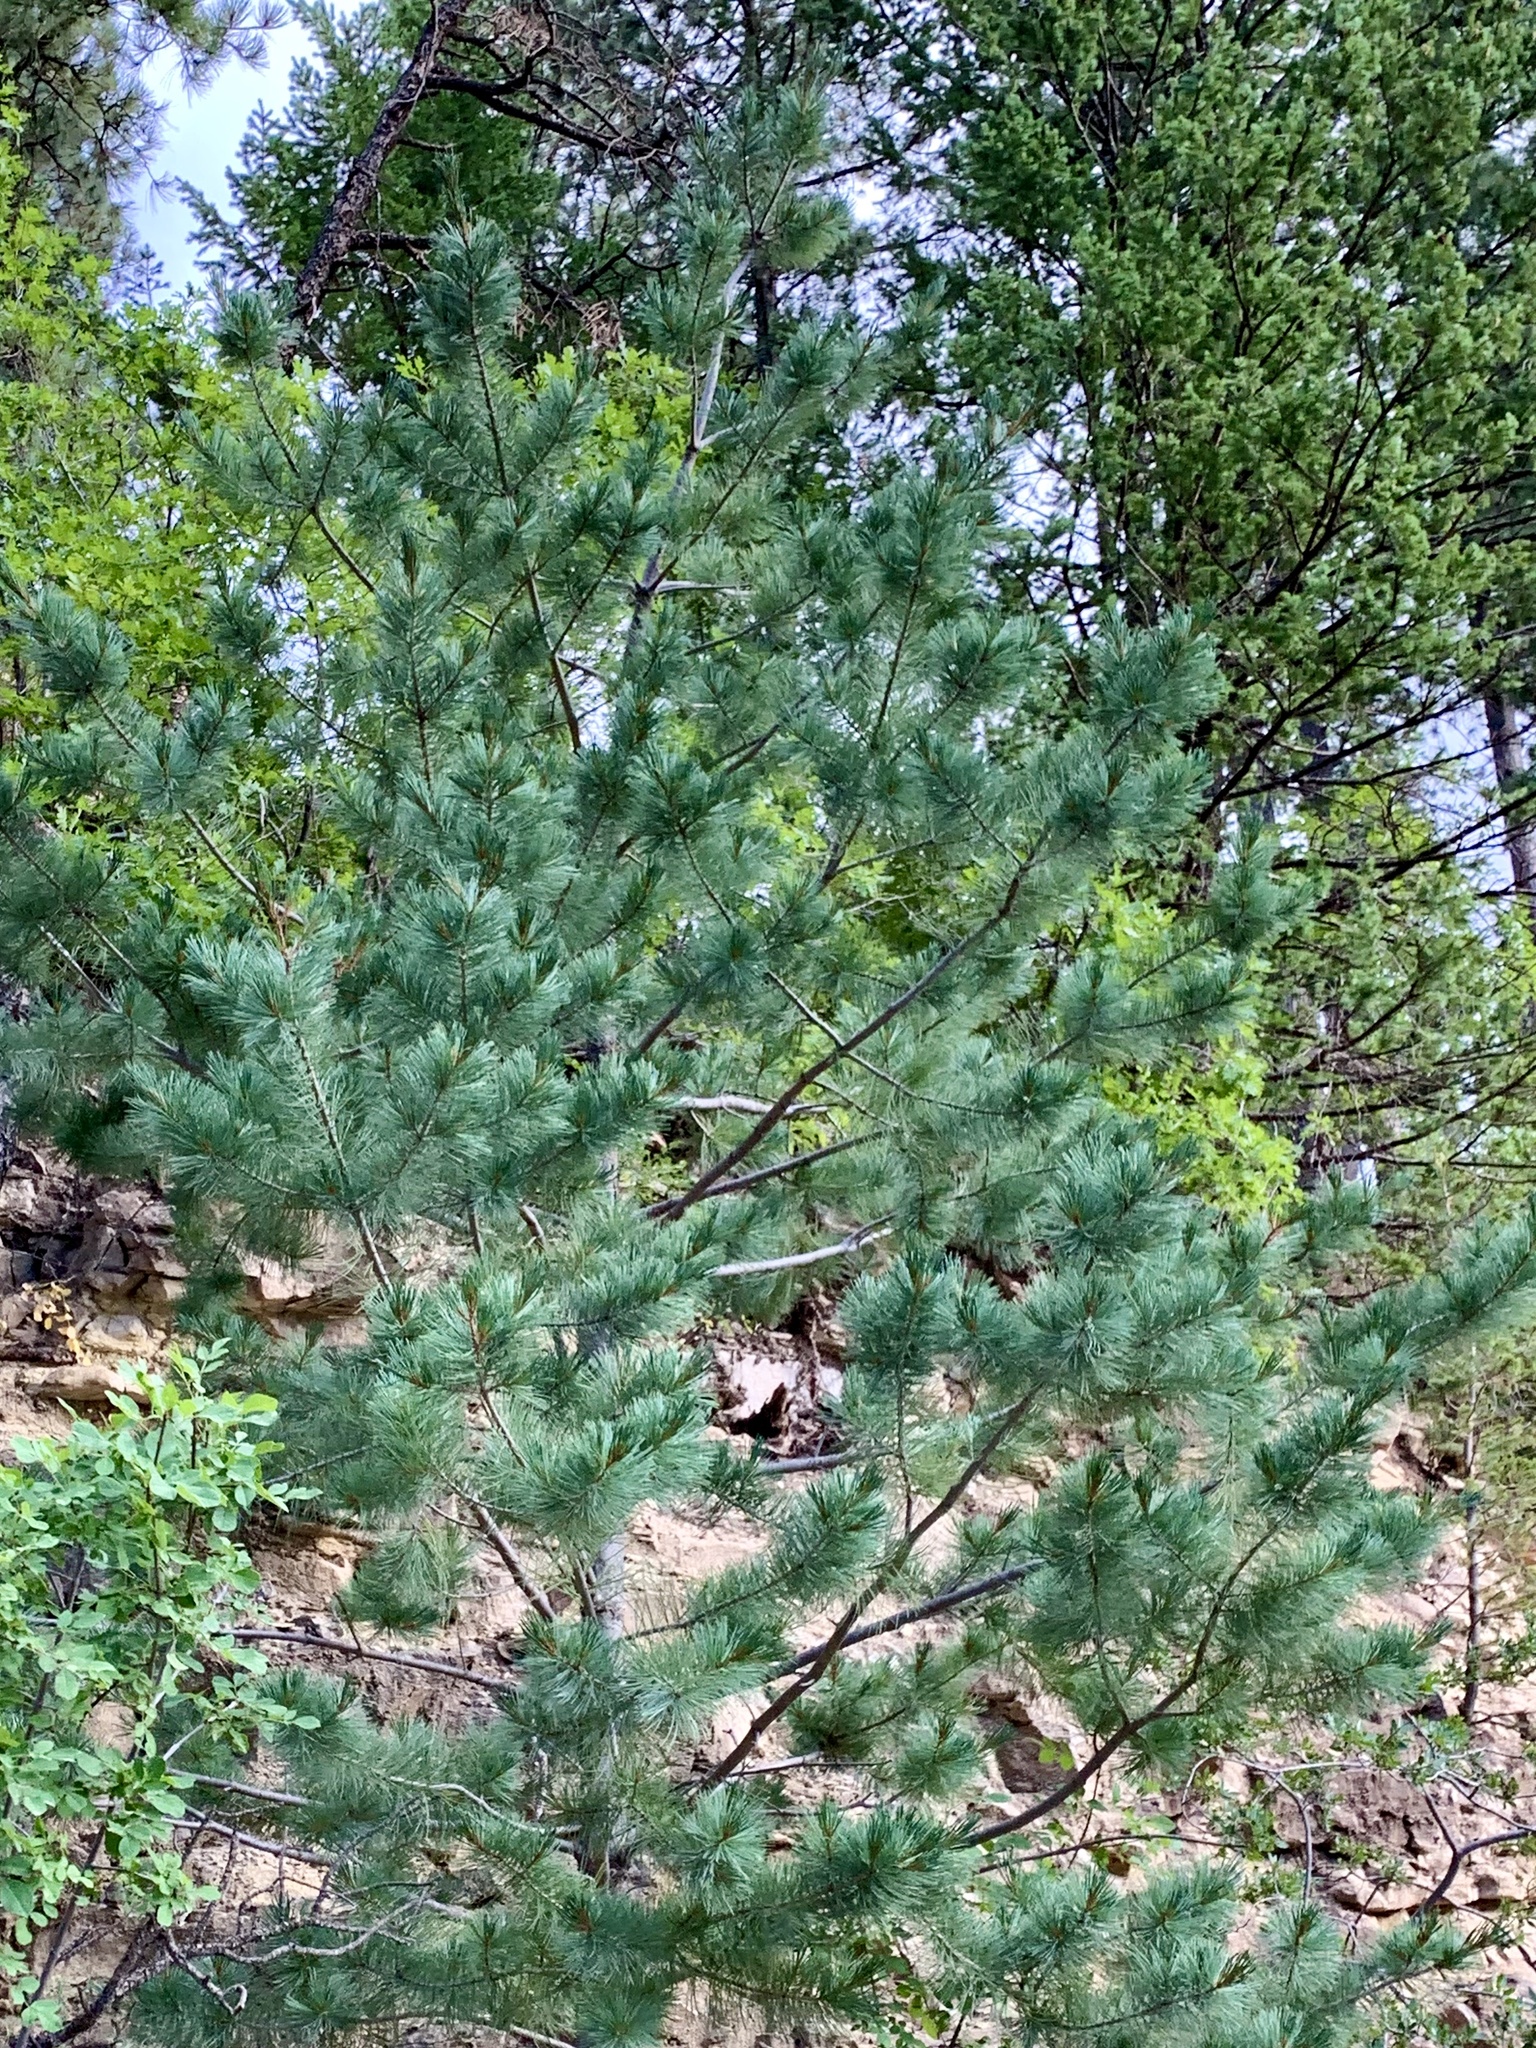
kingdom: Plantae
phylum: Tracheophyta
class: Pinopsida
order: Pinales
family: Pinaceae
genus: Pinus
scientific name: Pinus strobiformis
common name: Southwestern white pine
